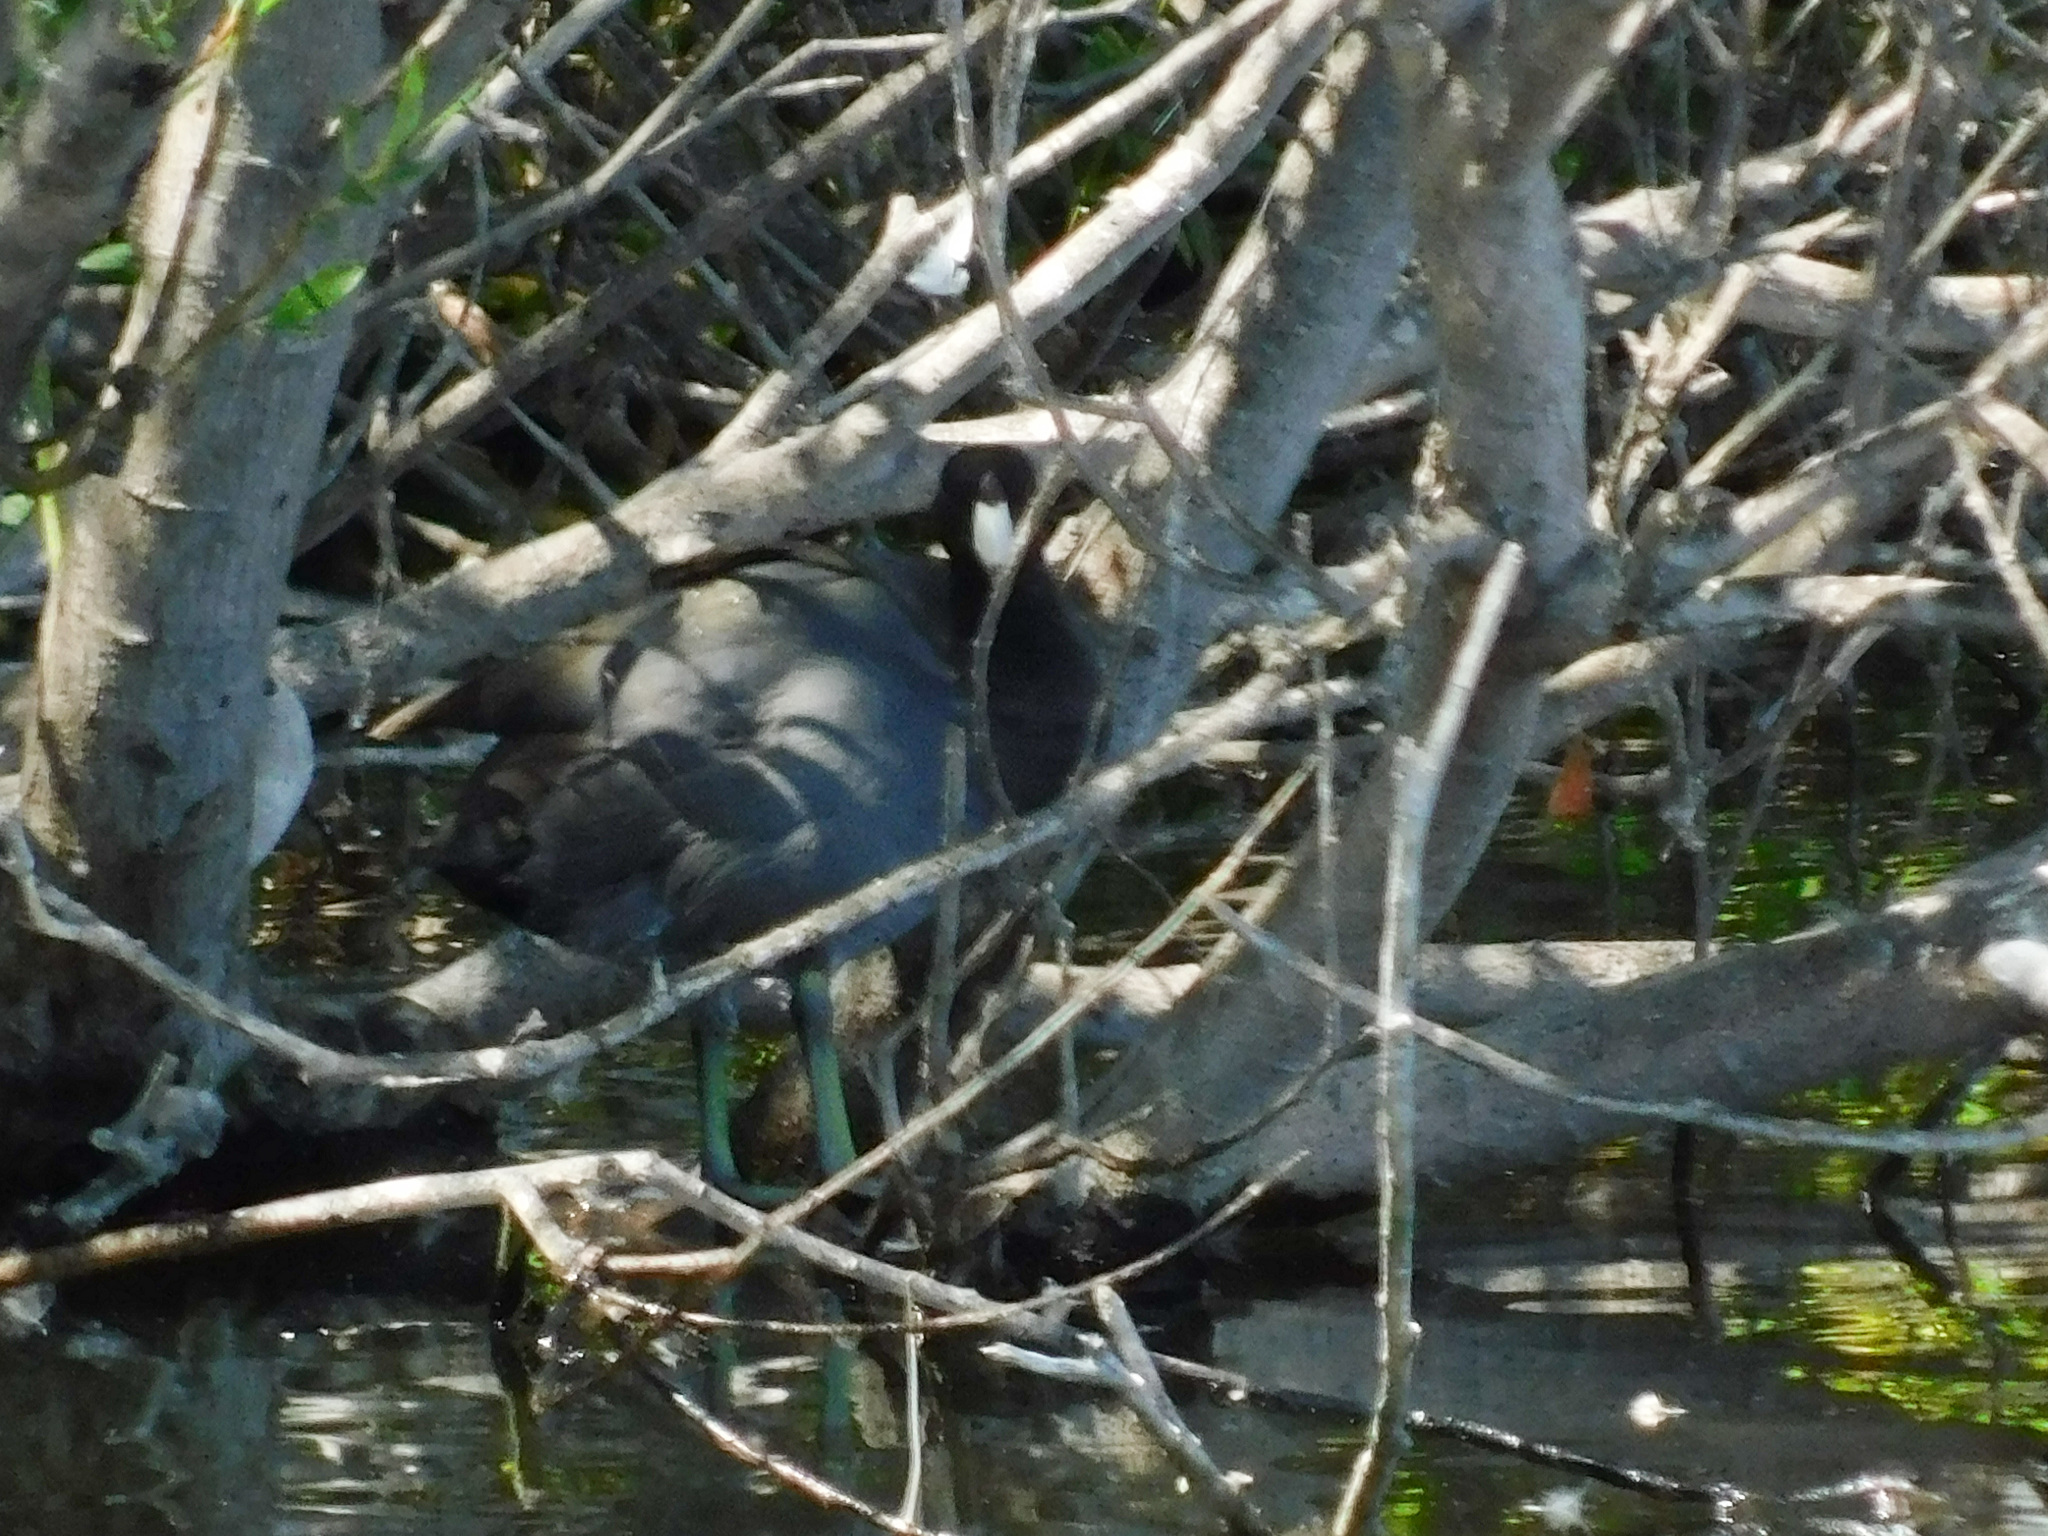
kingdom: Animalia
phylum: Chordata
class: Aves
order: Gruiformes
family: Rallidae
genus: Fulica
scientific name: Fulica americana
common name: American coot
